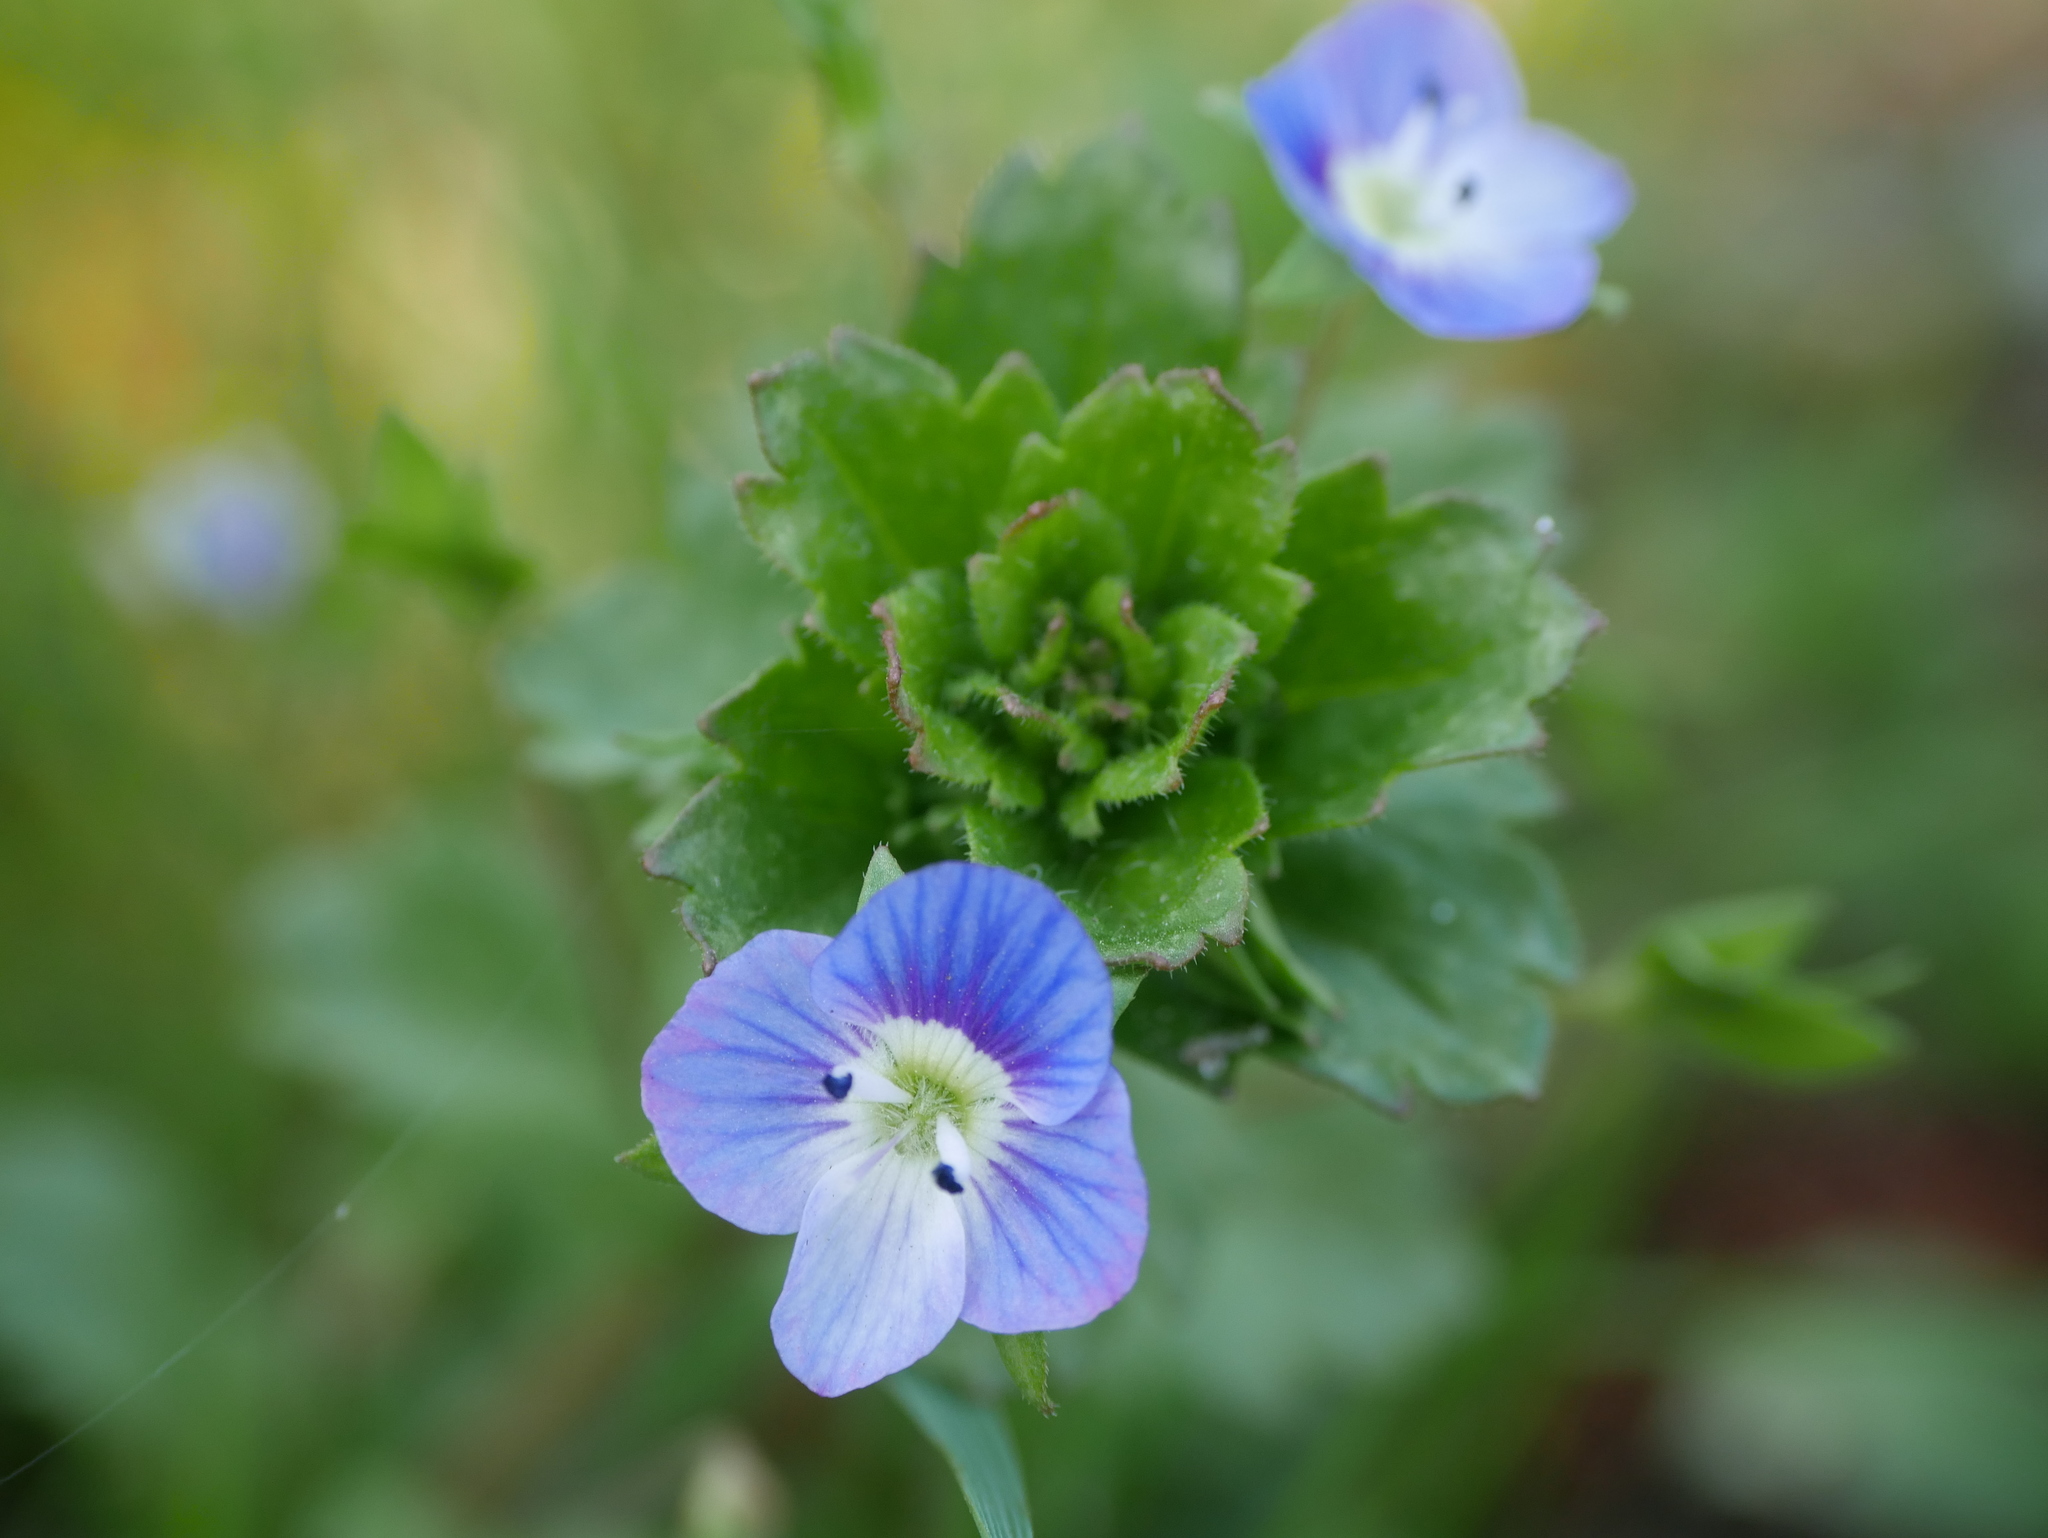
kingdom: Plantae
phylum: Tracheophyta
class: Magnoliopsida
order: Lamiales
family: Plantaginaceae
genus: Veronica
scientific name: Veronica persica
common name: Common field-speedwell
